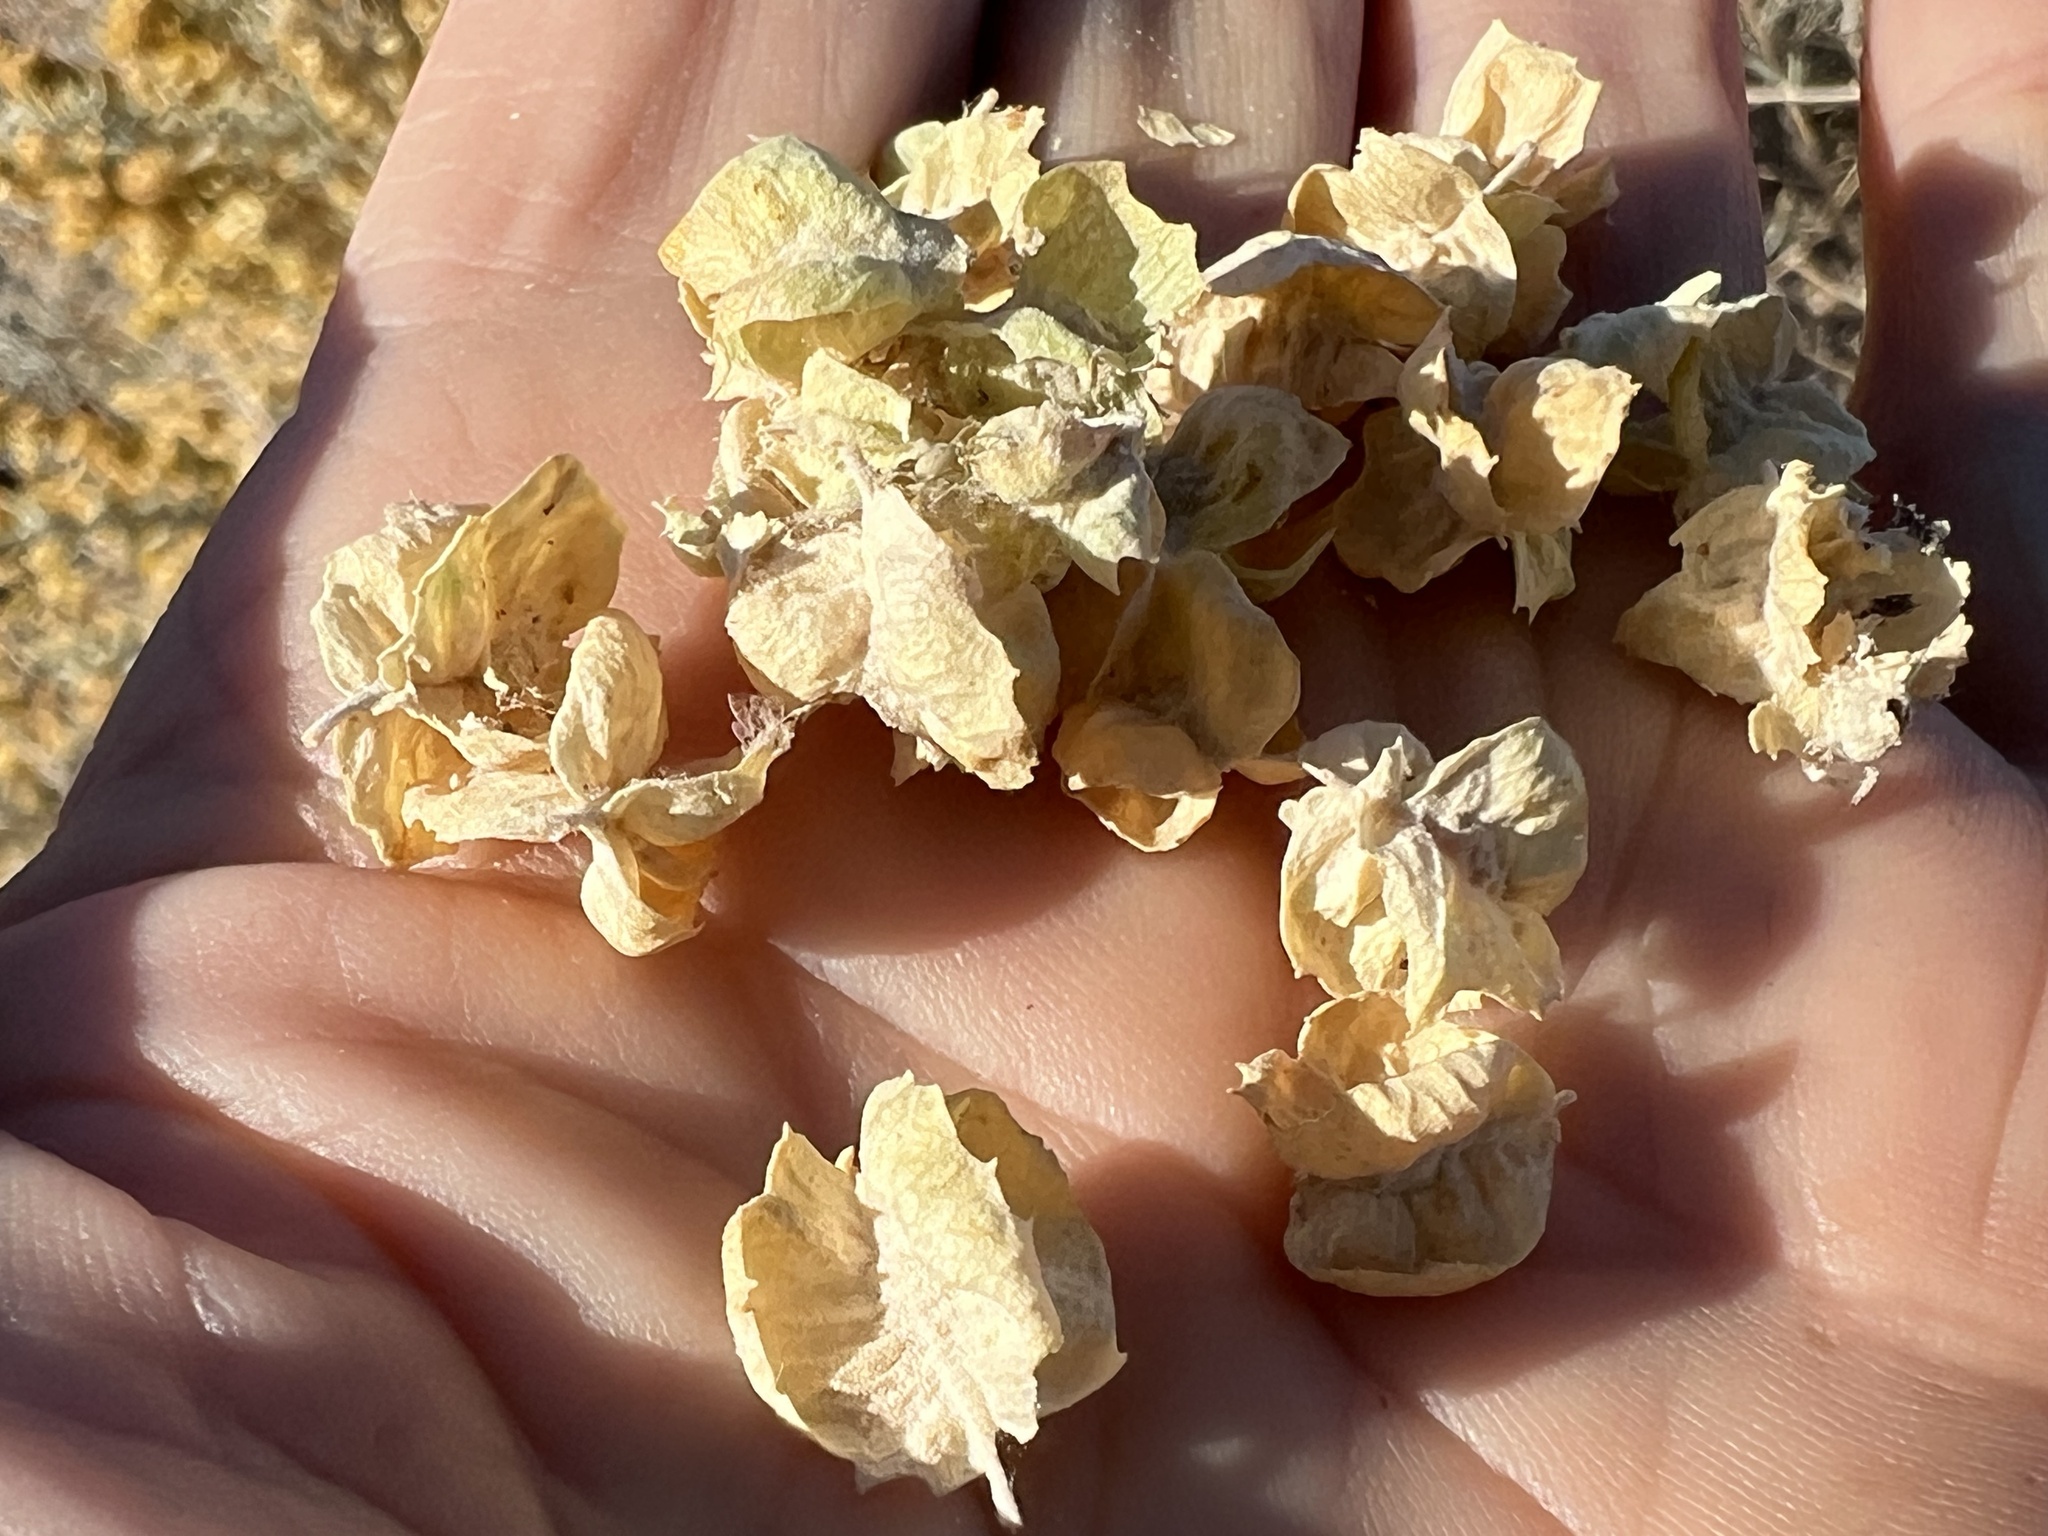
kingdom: Plantae
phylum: Tracheophyta
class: Magnoliopsida
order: Caryophyllales
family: Amaranthaceae
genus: Atriplex
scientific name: Atriplex canescens
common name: Four-wing saltbush
